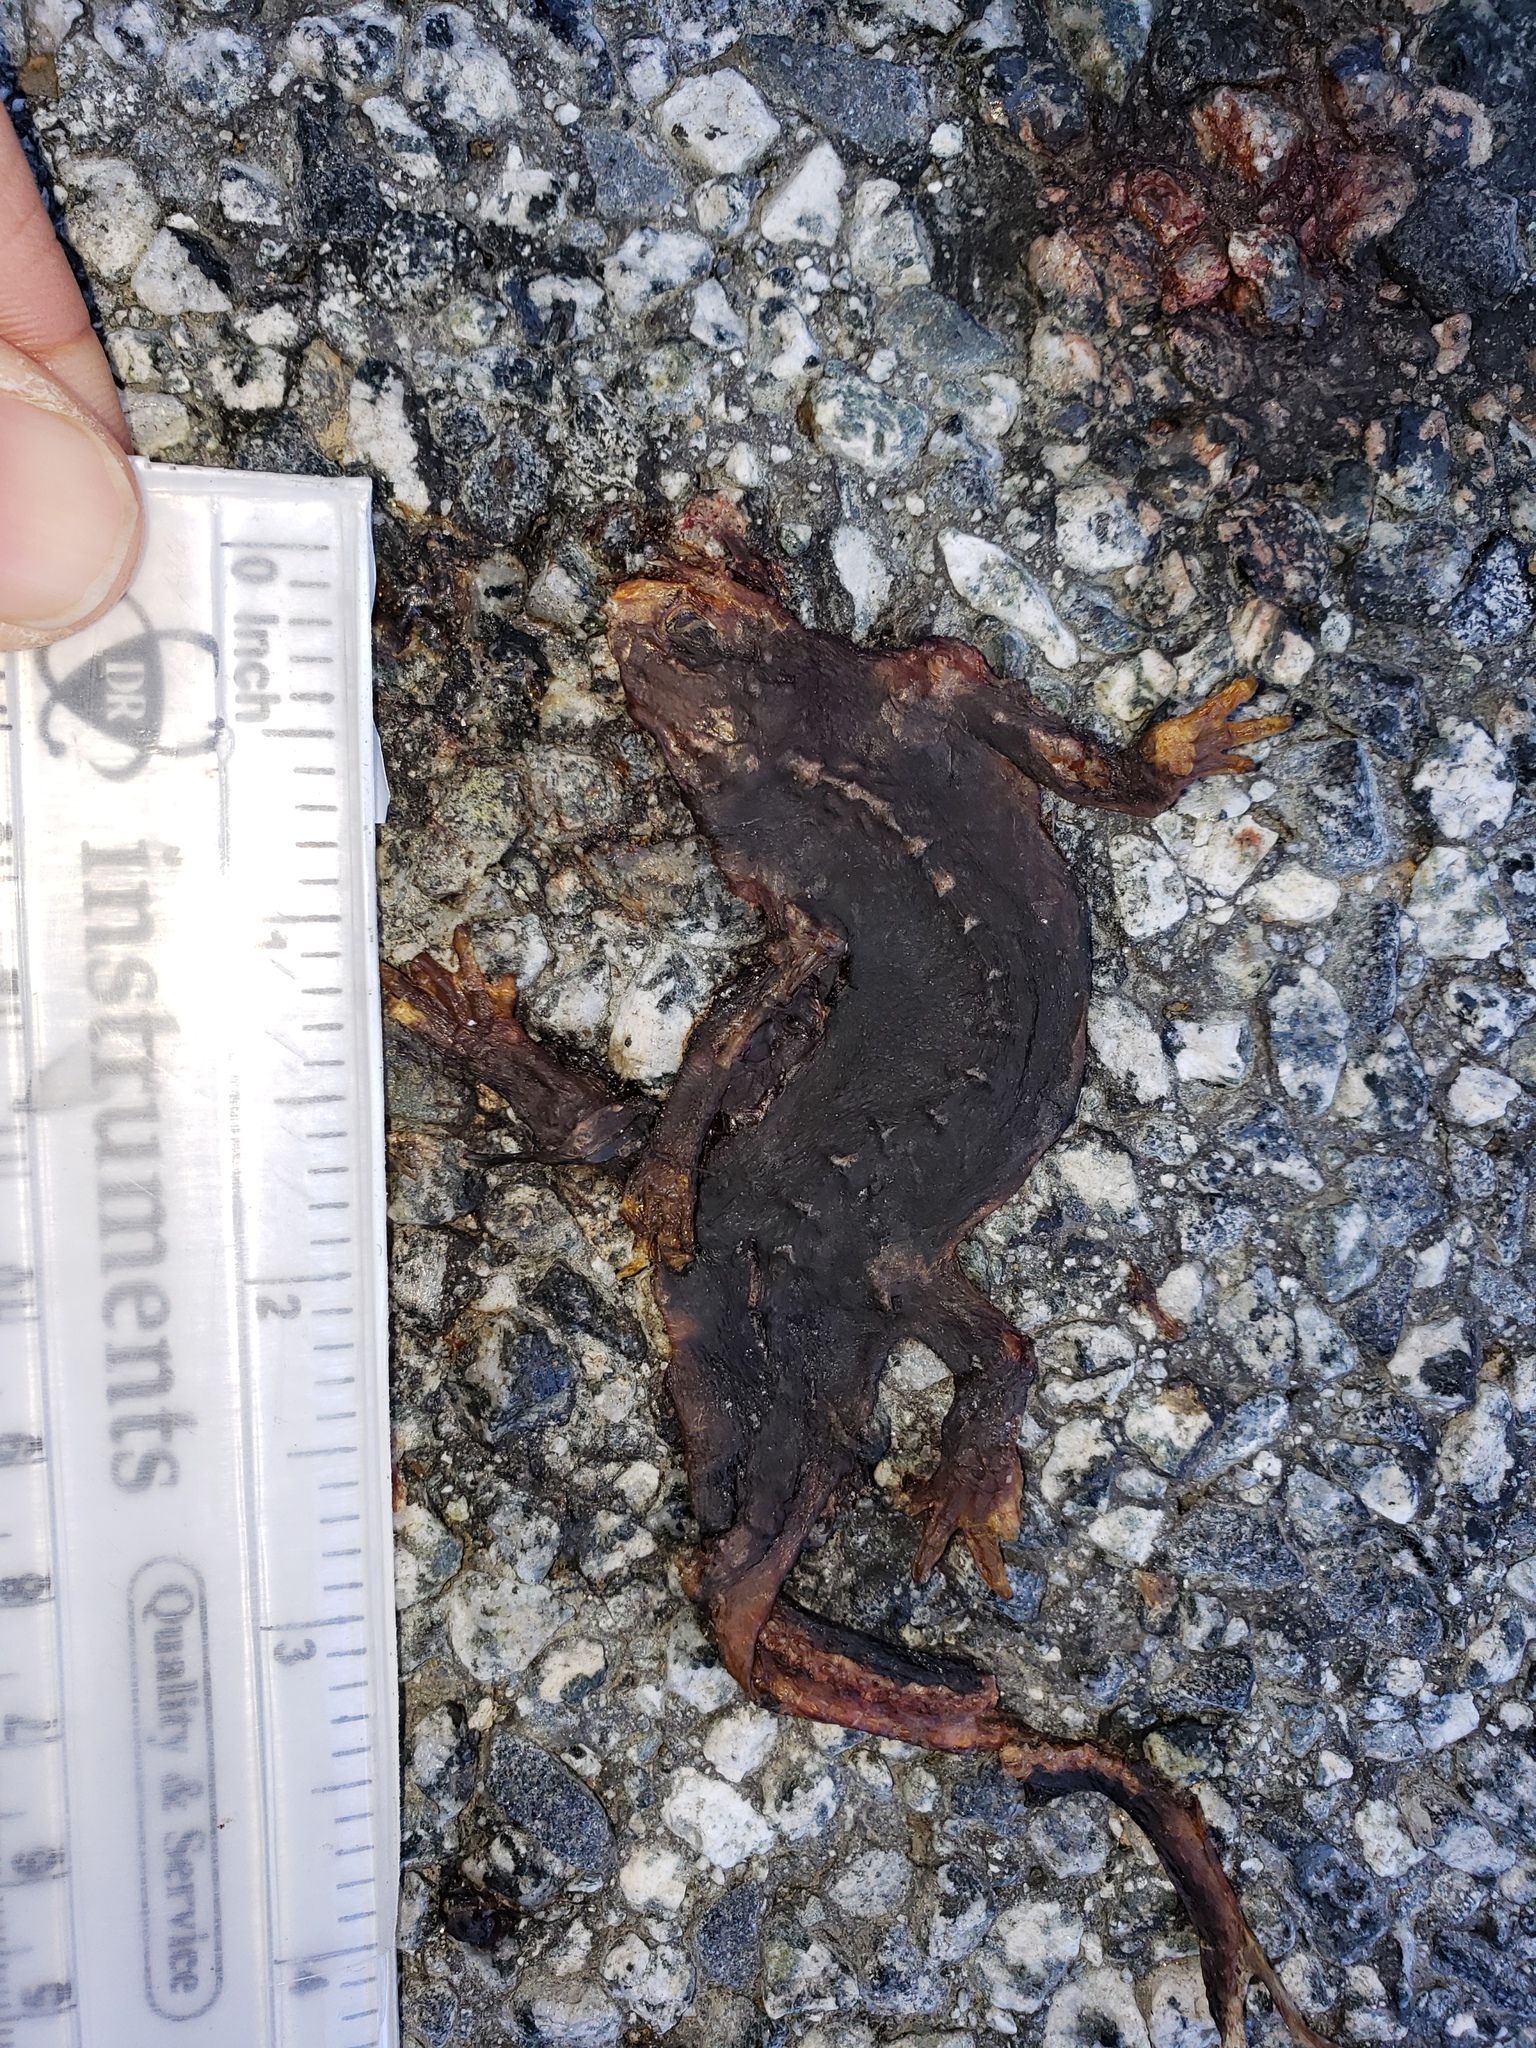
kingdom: Animalia
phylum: Chordata
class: Amphibia
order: Caudata
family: Salamandridae
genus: Taricha
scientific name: Taricha
